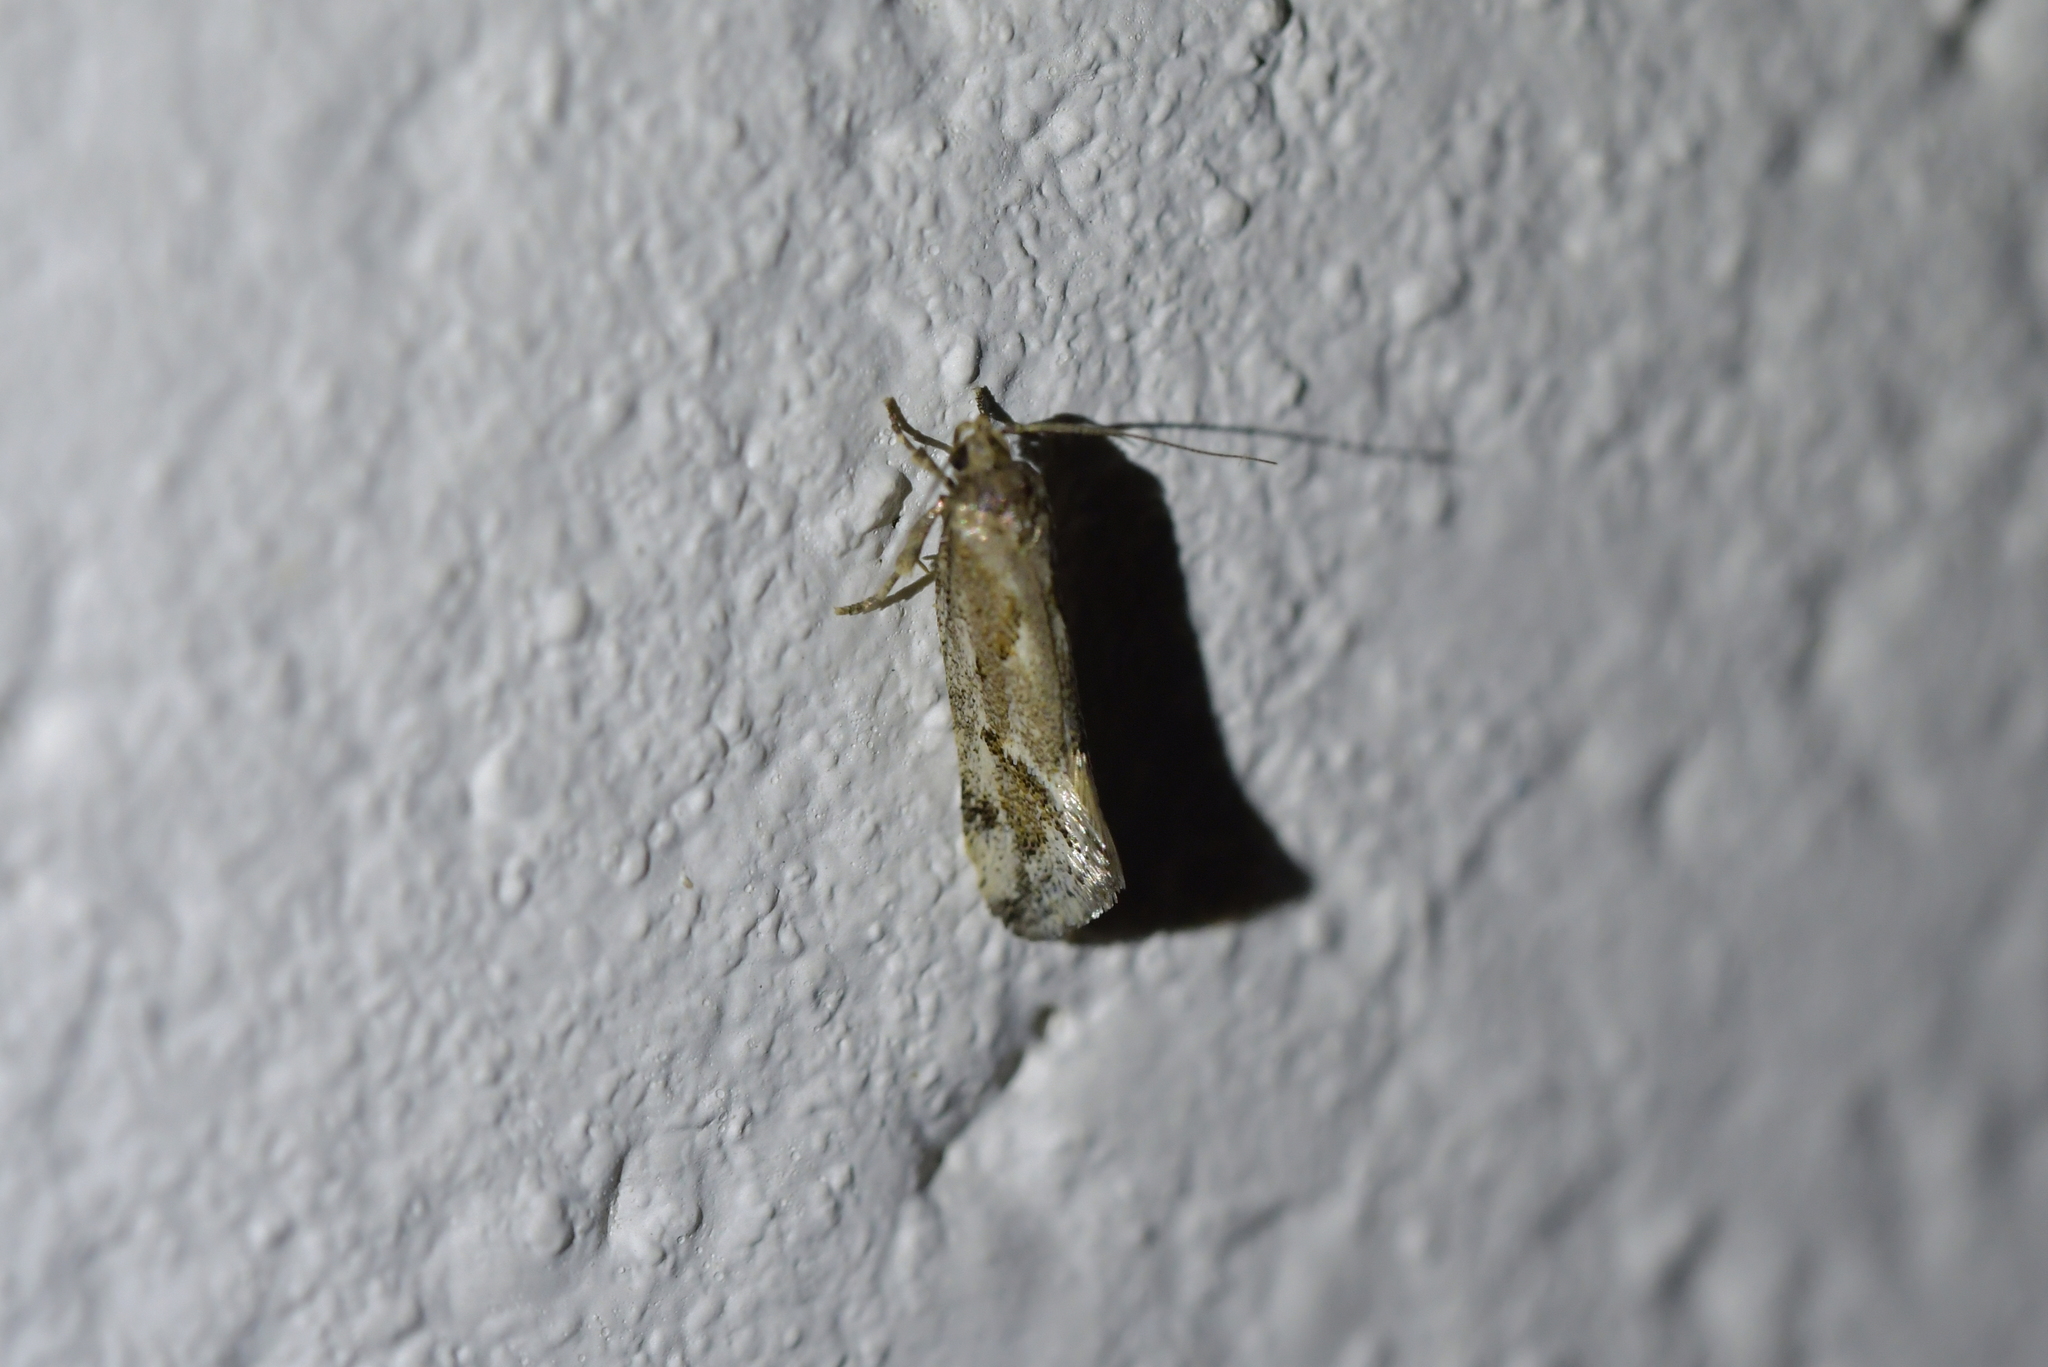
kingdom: Animalia
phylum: Arthropoda
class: Insecta
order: Lepidoptera
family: Oecophoridae
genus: Tingena
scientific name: Tingena hemimochla
